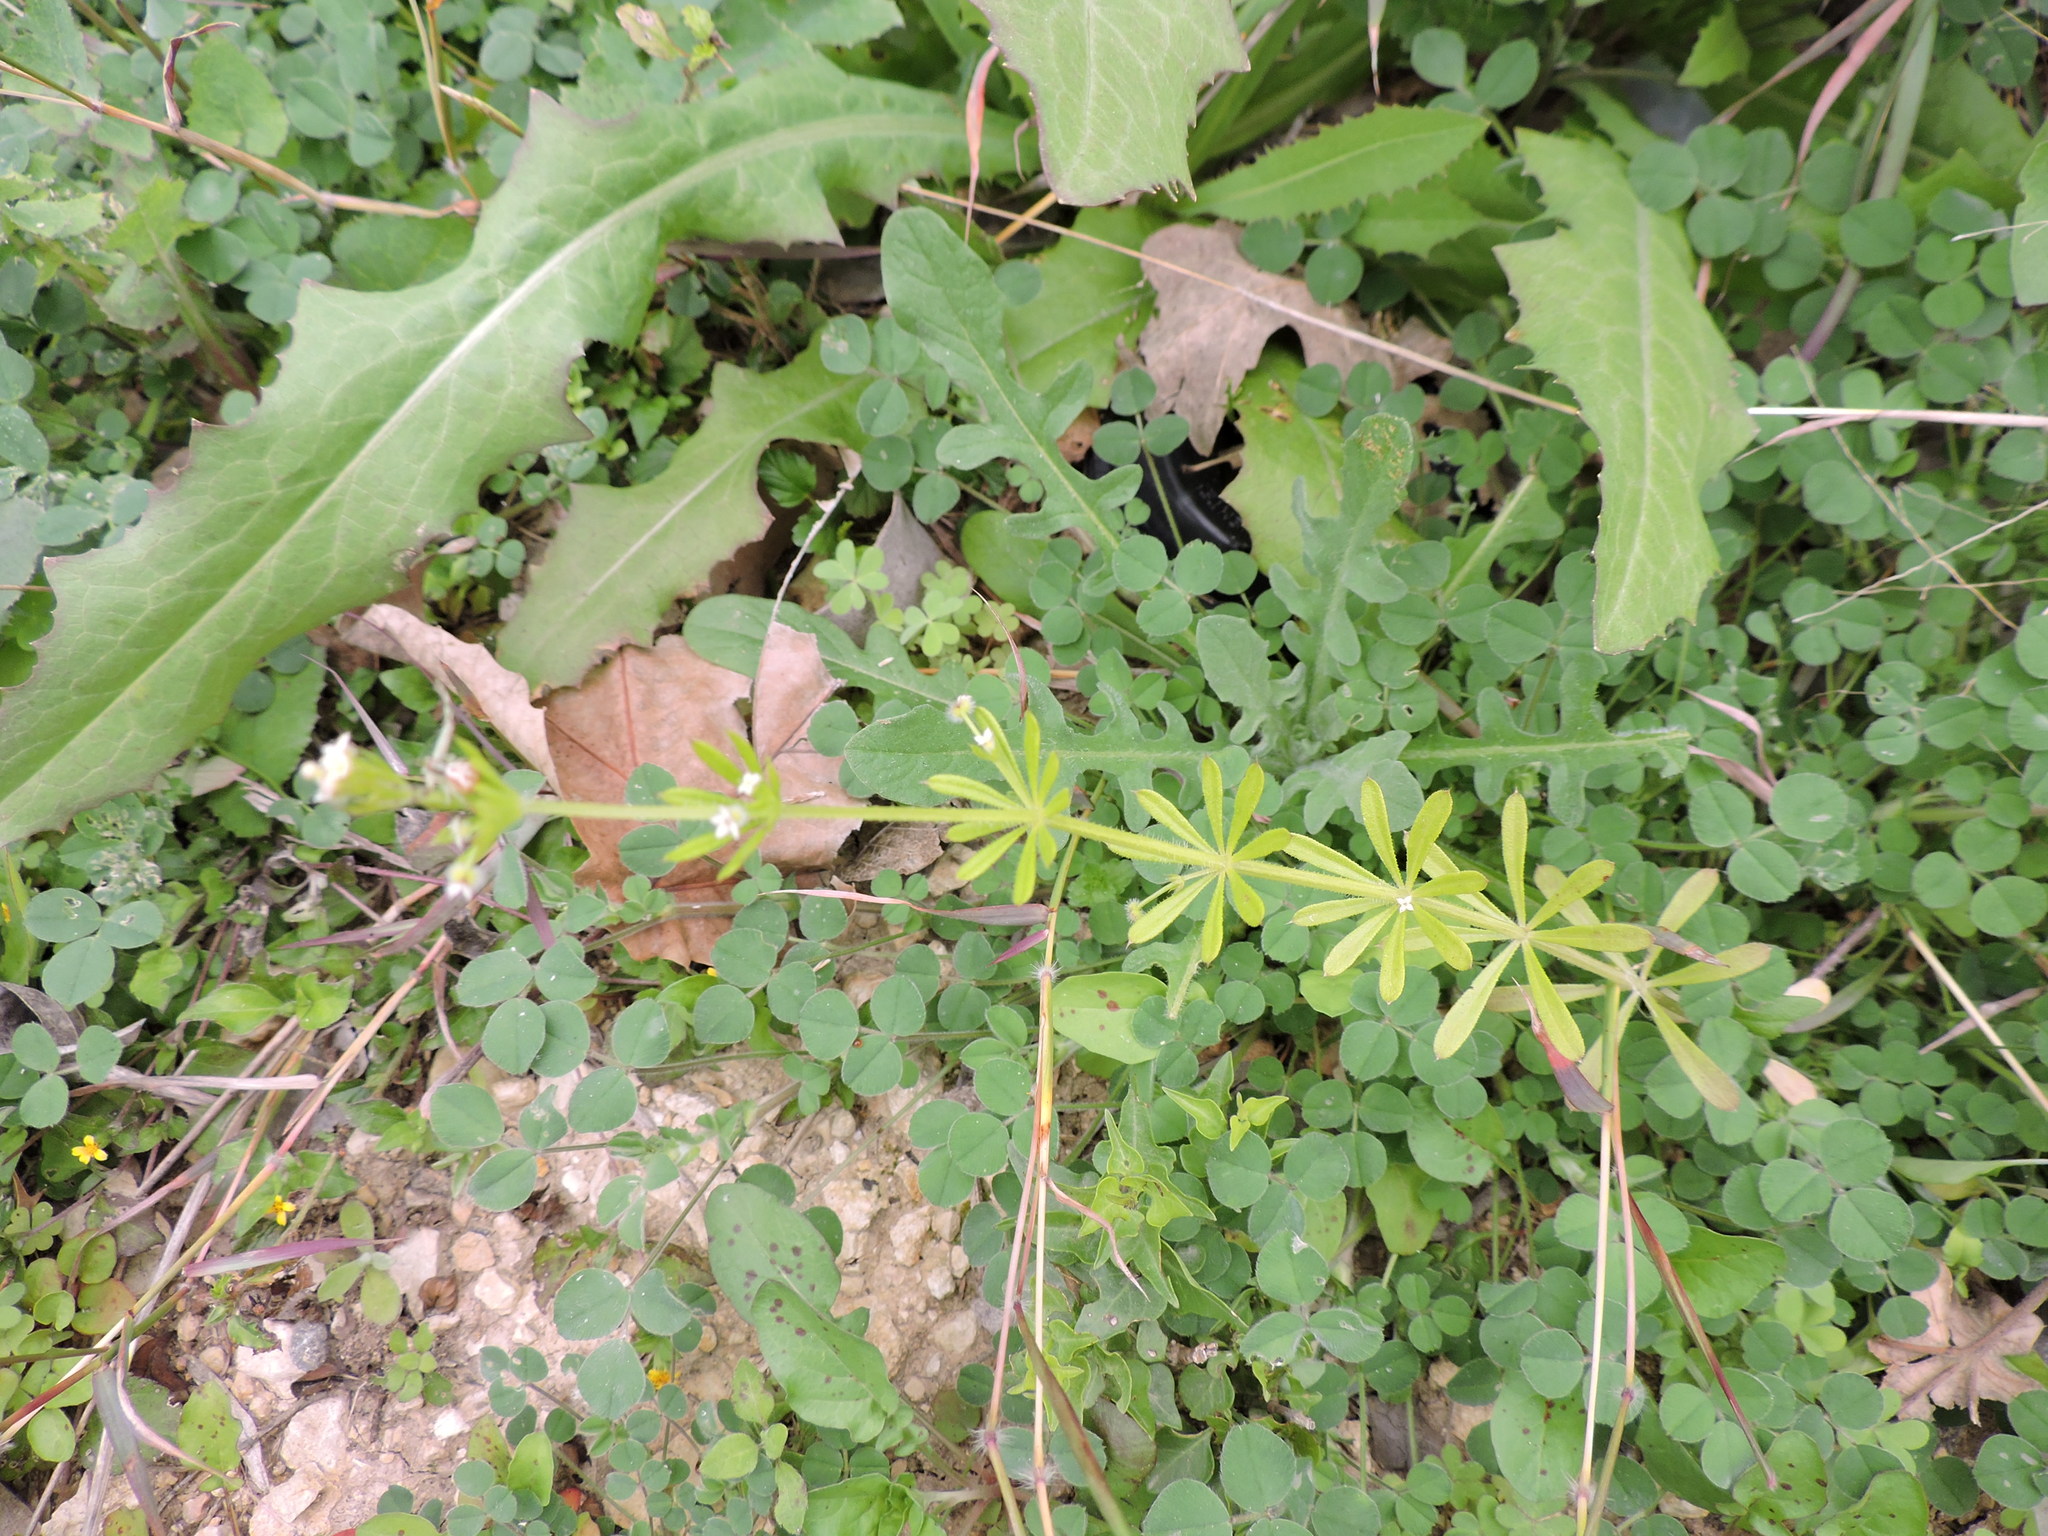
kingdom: Plantae
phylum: Tracheophyta
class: Magnoliopsida
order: Gentianales
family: Rubiaceae
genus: Galium
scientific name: Galium aparine
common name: Cleavers
